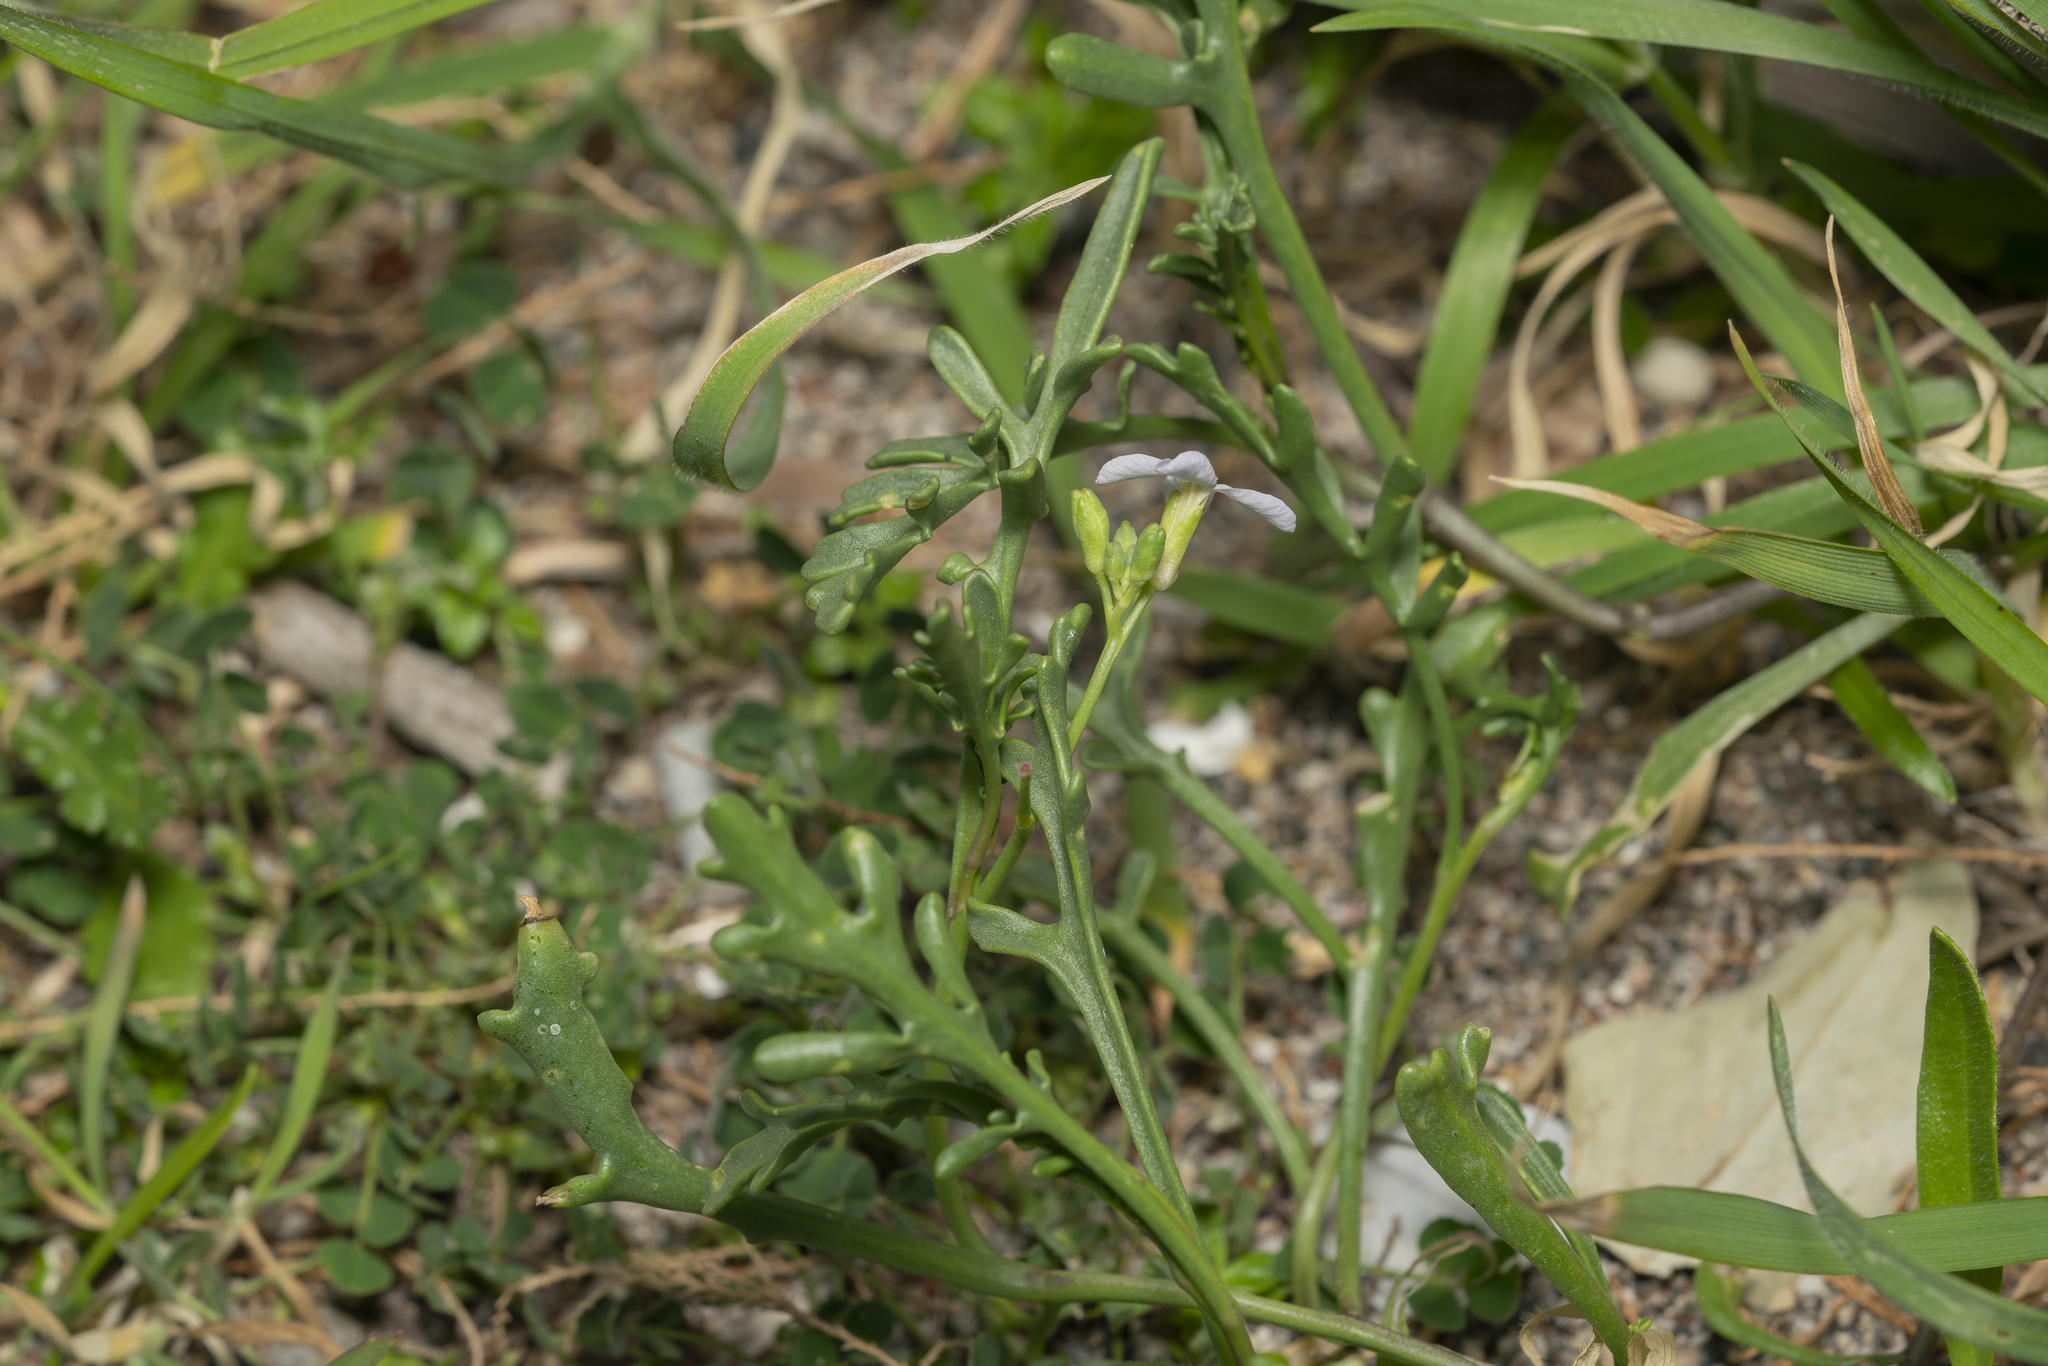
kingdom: Plantae
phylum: Tracheophyta
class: Magnoliopsida
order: Brassicales
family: Brassicaceae
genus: Cakile
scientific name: Cakile maritima
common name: Sea rocket
